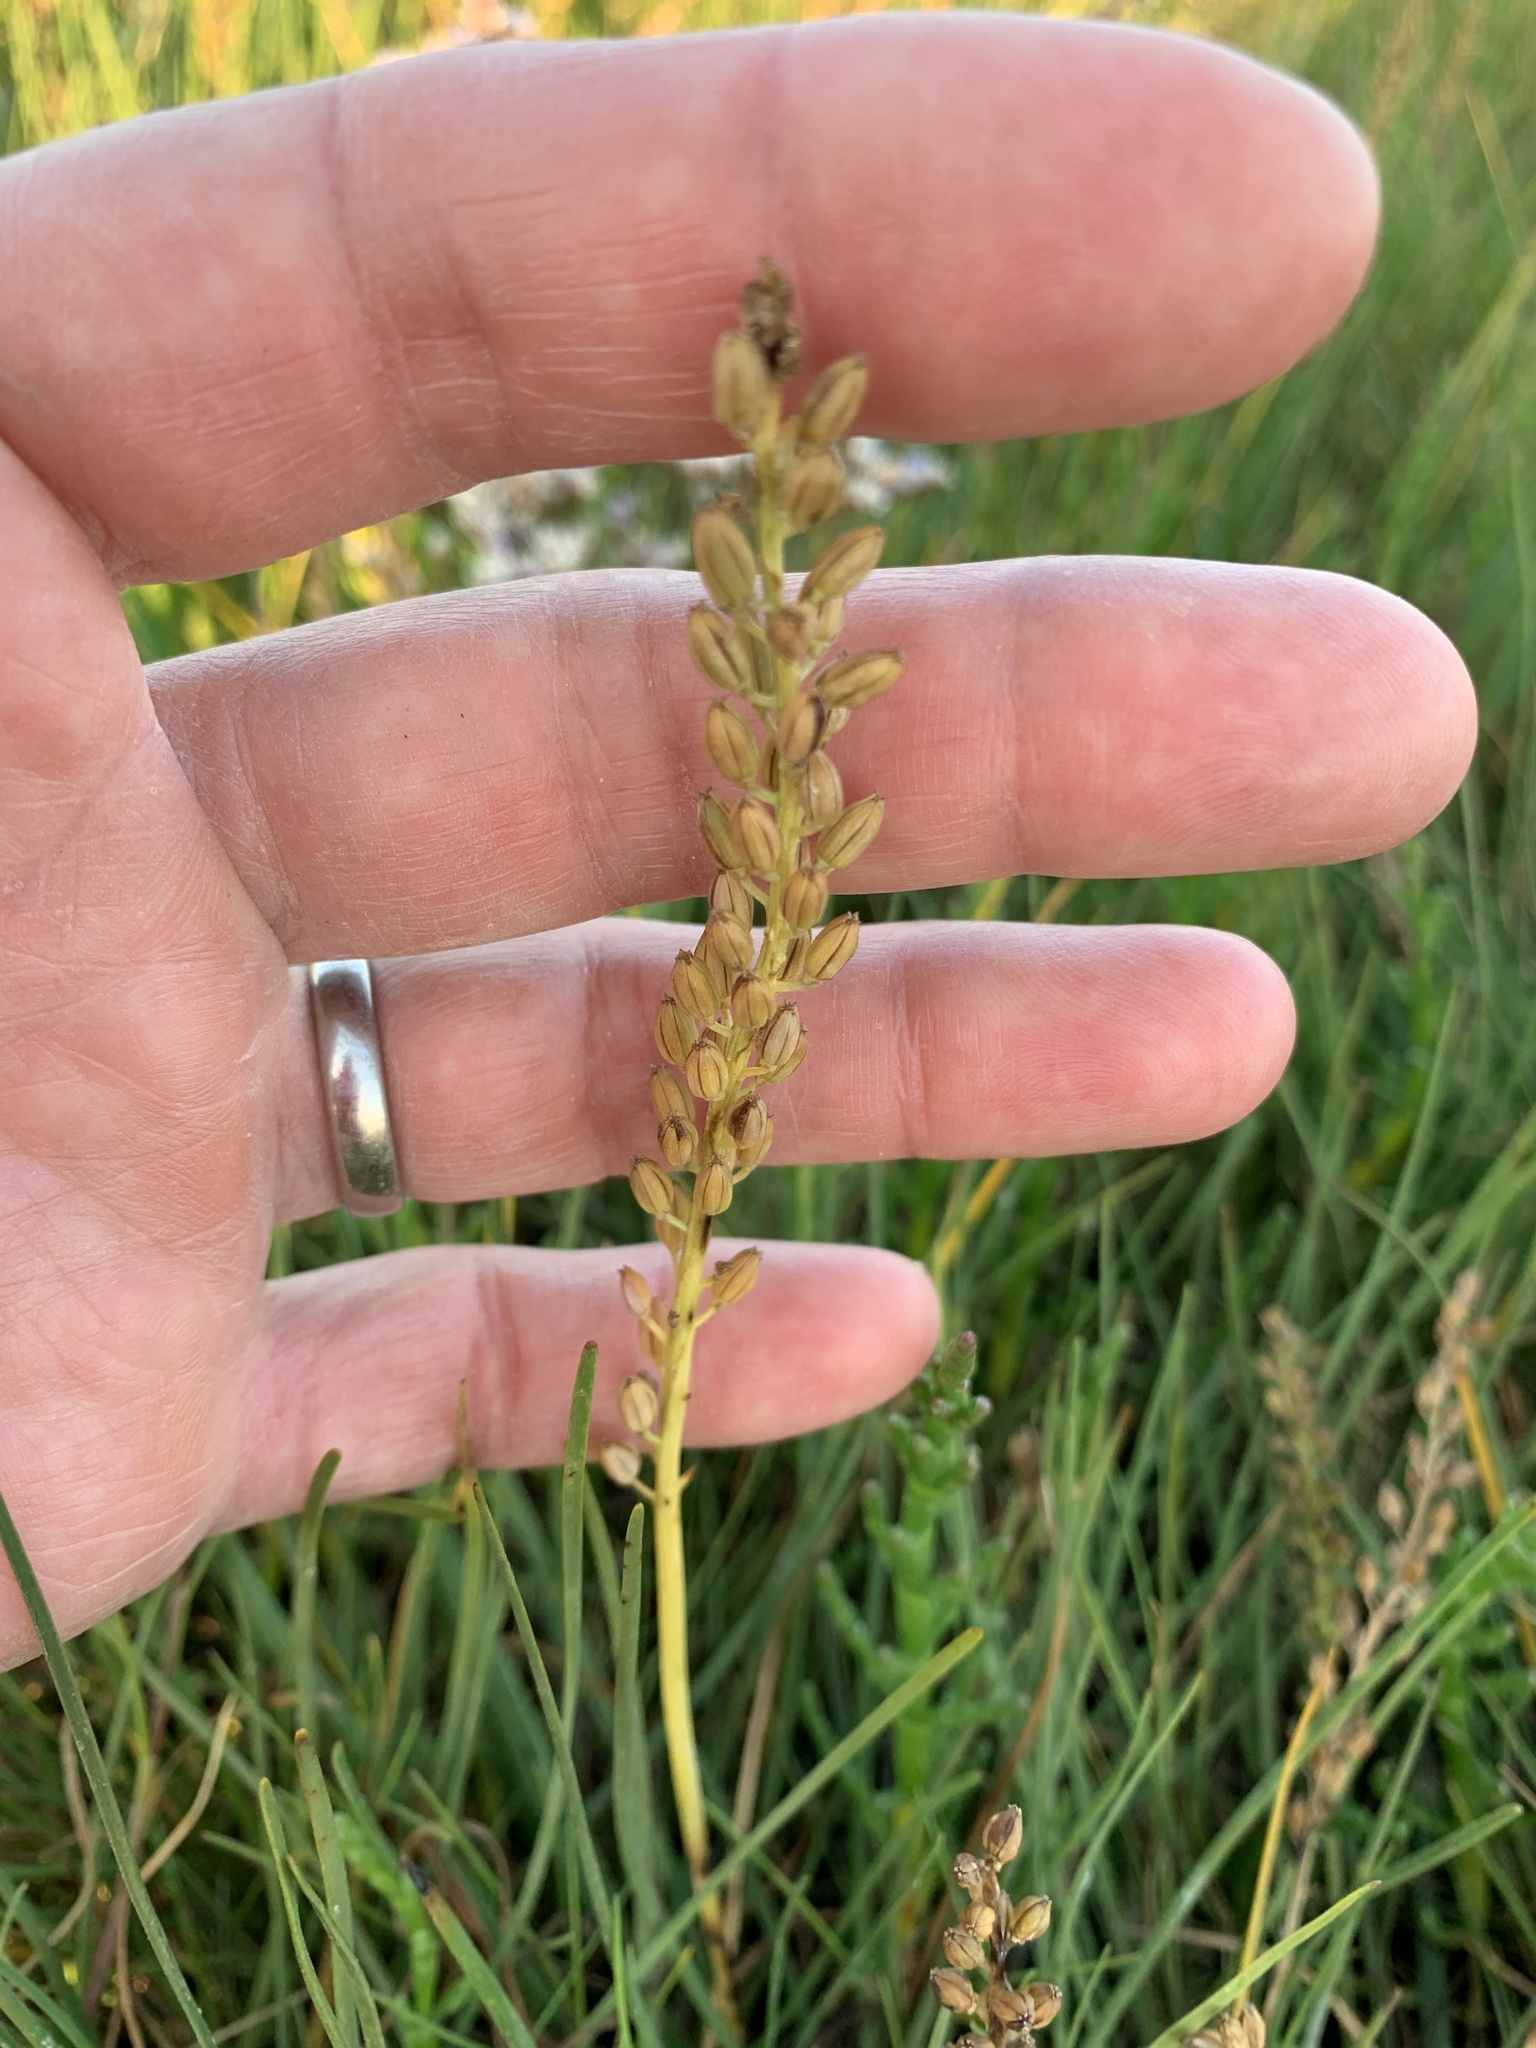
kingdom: Plantae
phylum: Tracheophyta
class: Liliopsida
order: Alismatales
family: Juncaginaceae
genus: Triglochin
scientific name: Triglochin maritima
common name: Sea arrowgrass
